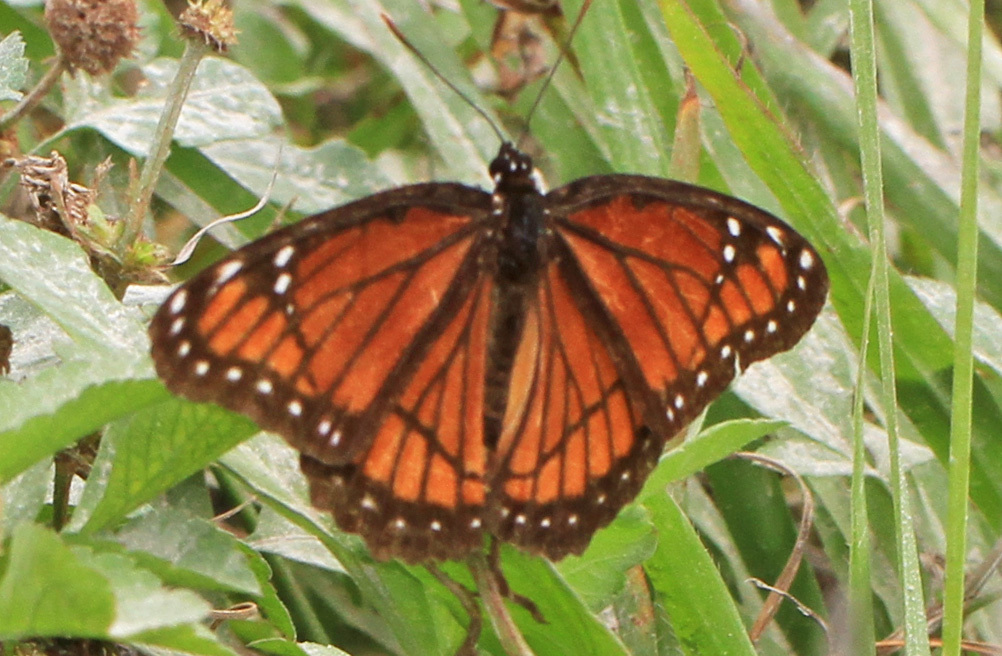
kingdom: Animalia
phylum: Arthropoda
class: Insecta
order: Lepidoptera
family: Nymphalidae
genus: Limenitis
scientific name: Limenitis archippus
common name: Viceroy
